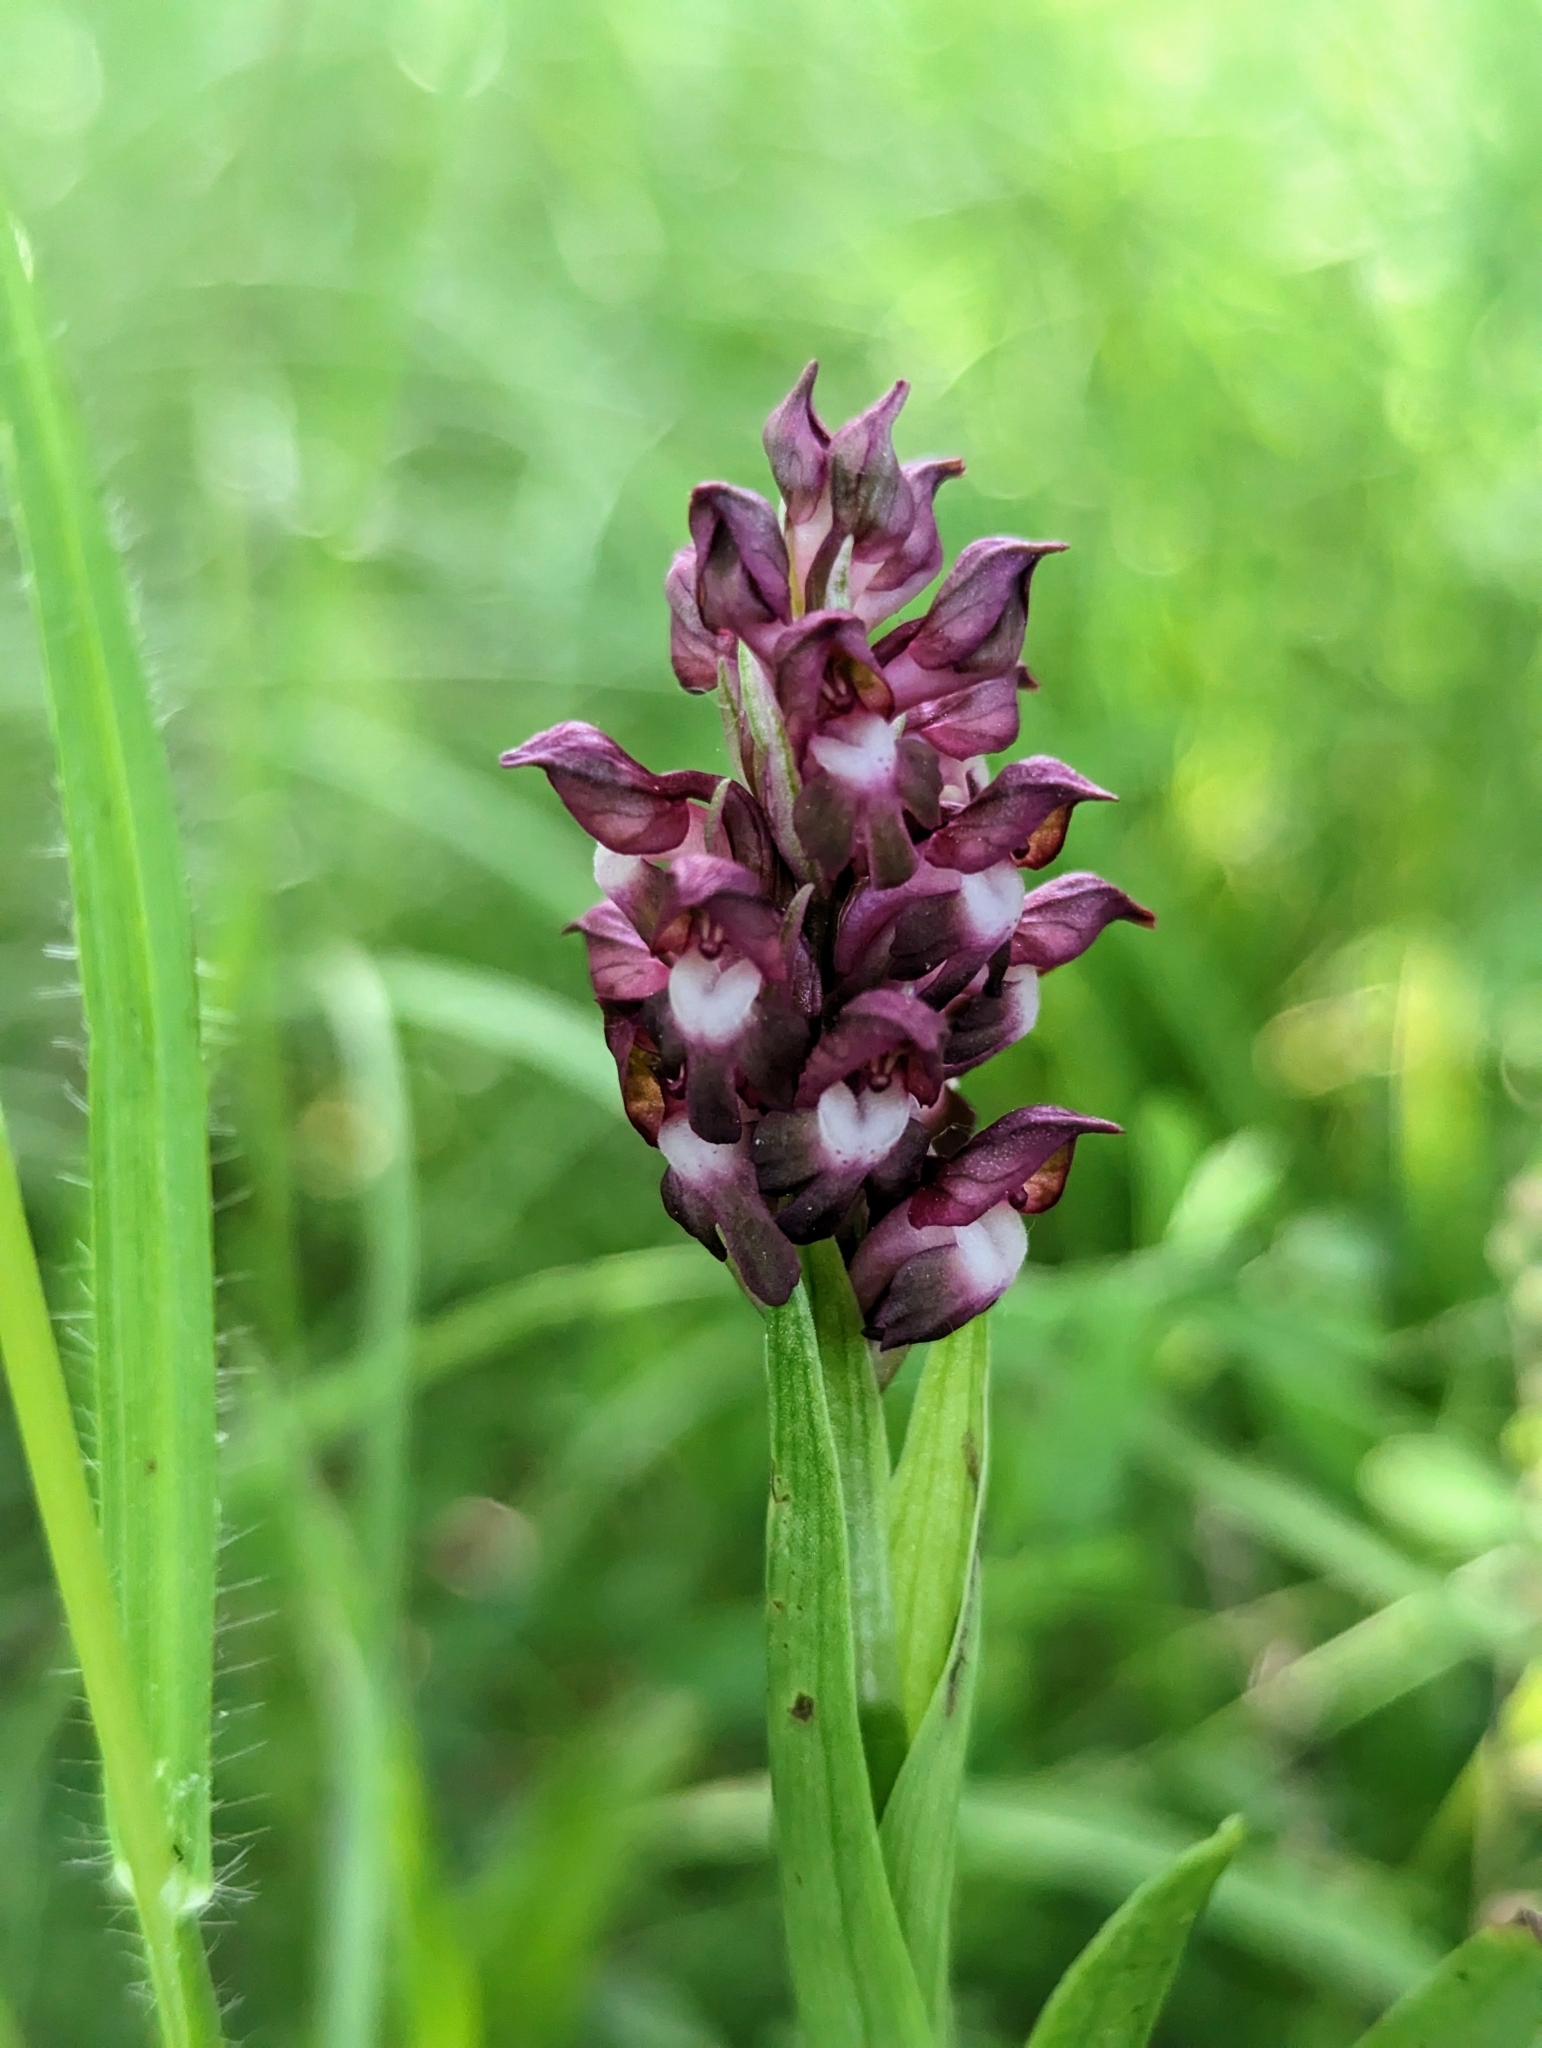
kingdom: Plantae
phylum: Tracheophyta
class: Liliopsida
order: Asparagales
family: Orchidaceae
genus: Anacamptis
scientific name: Anacamptis coriophora
